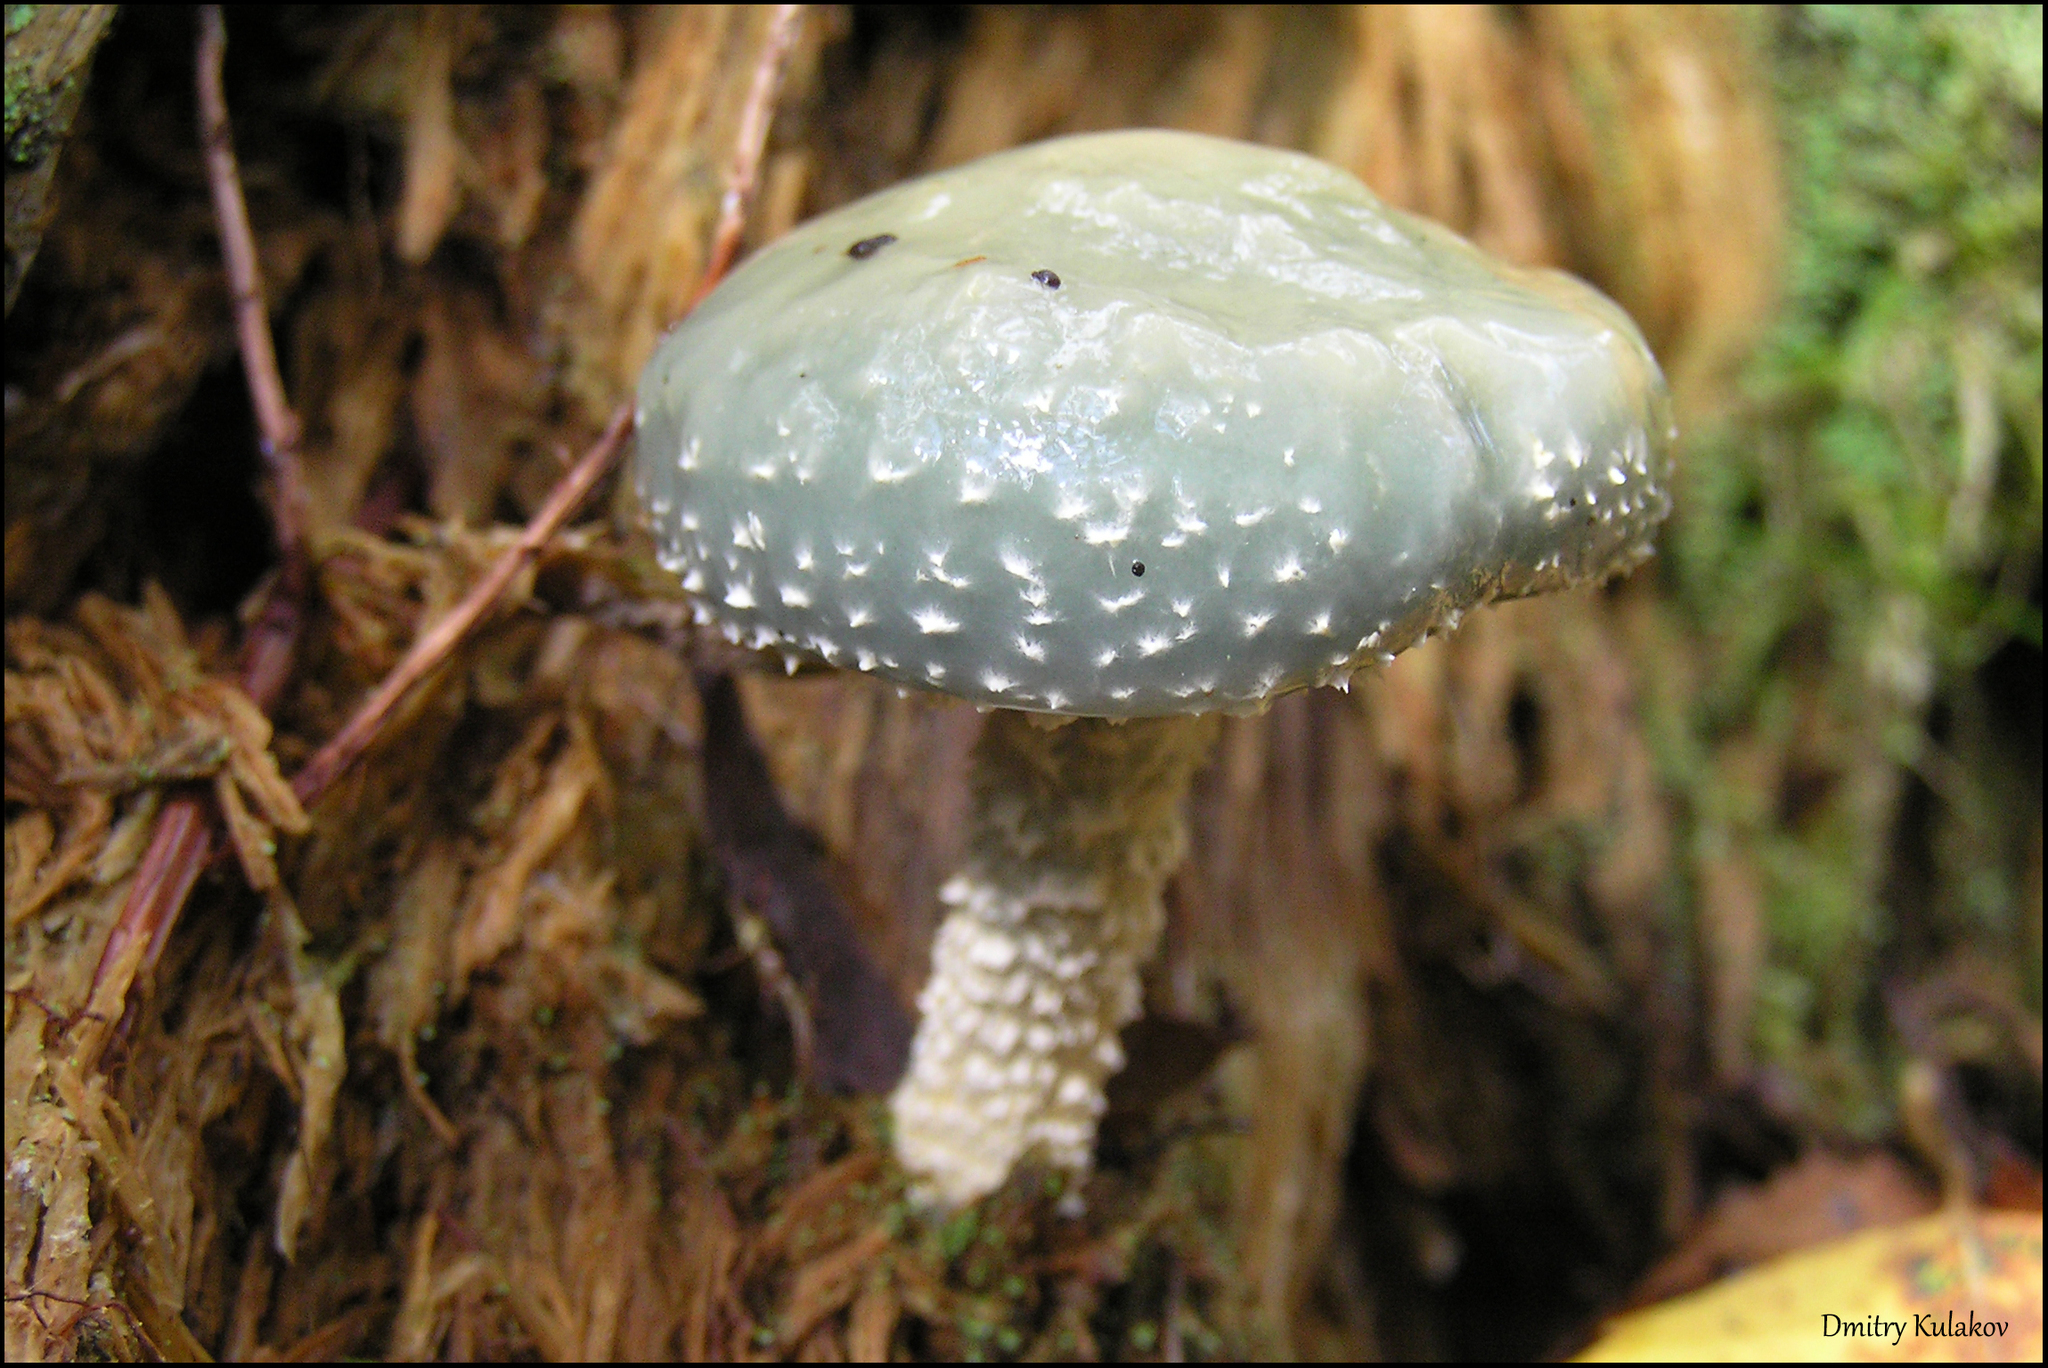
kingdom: Fungi
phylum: Basidiomycota
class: Agaricomycetes
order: Agaricales
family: Strophariaceae
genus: Stropharia
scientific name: Stropharia aeruginosa
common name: Verdigris roundhead
